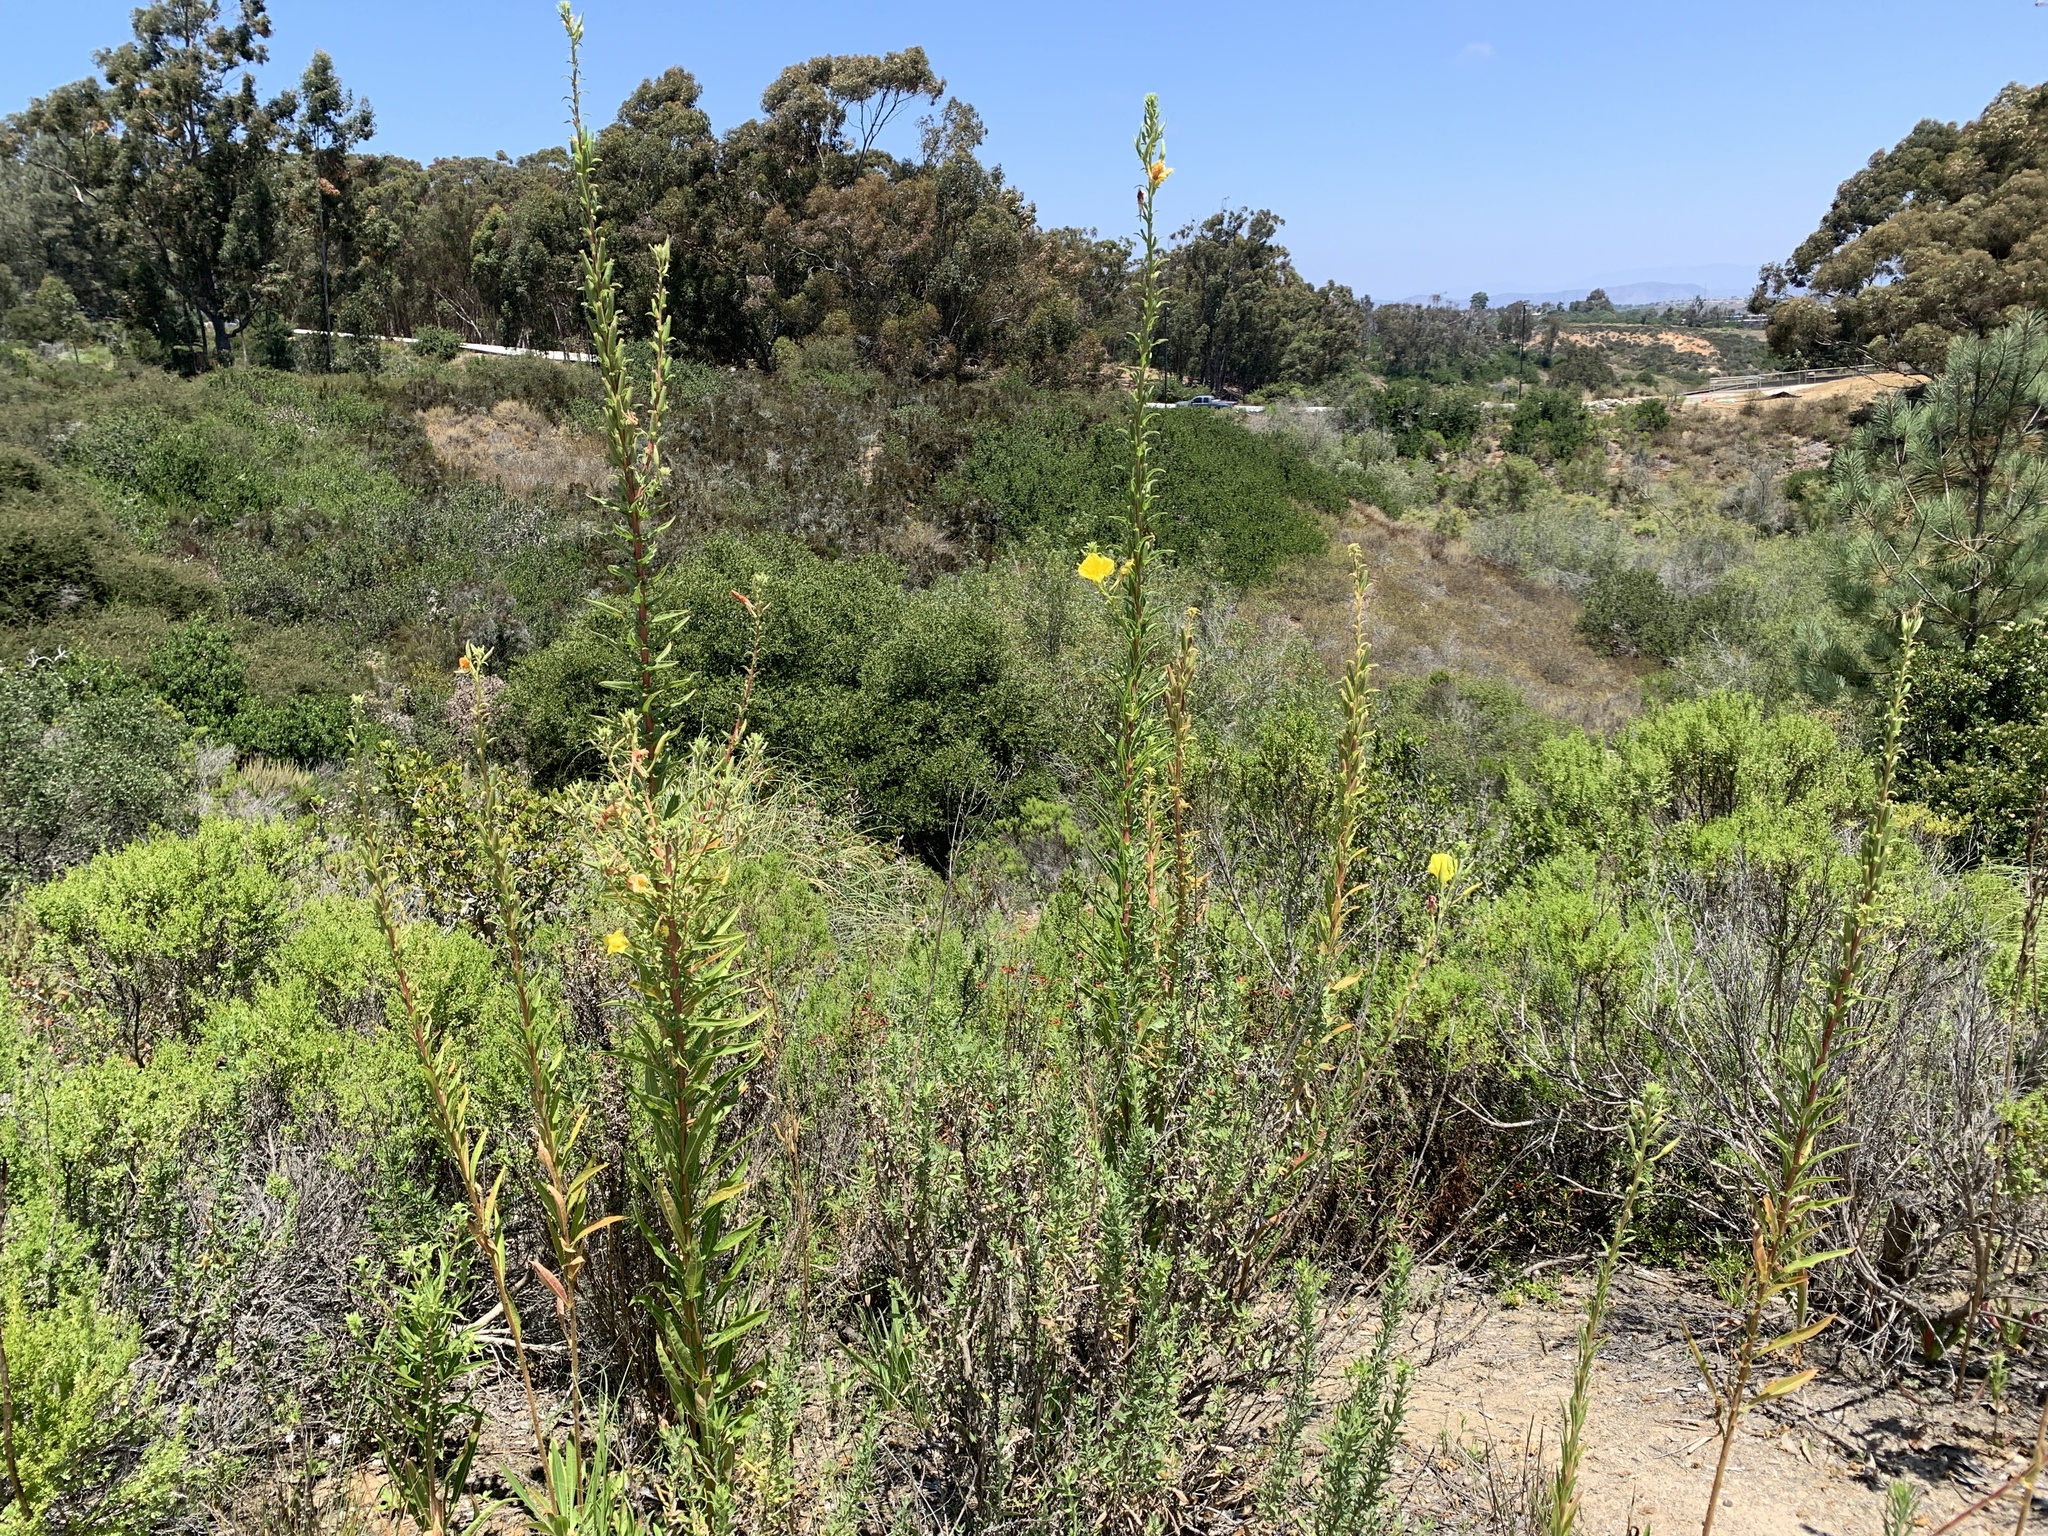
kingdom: Plantae
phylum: Tracheophyta
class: Magnoliopsida
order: Myrtales
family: Onagraceae
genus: Oenothera
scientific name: Oenothera elata
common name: Hooker's evening-primrose
